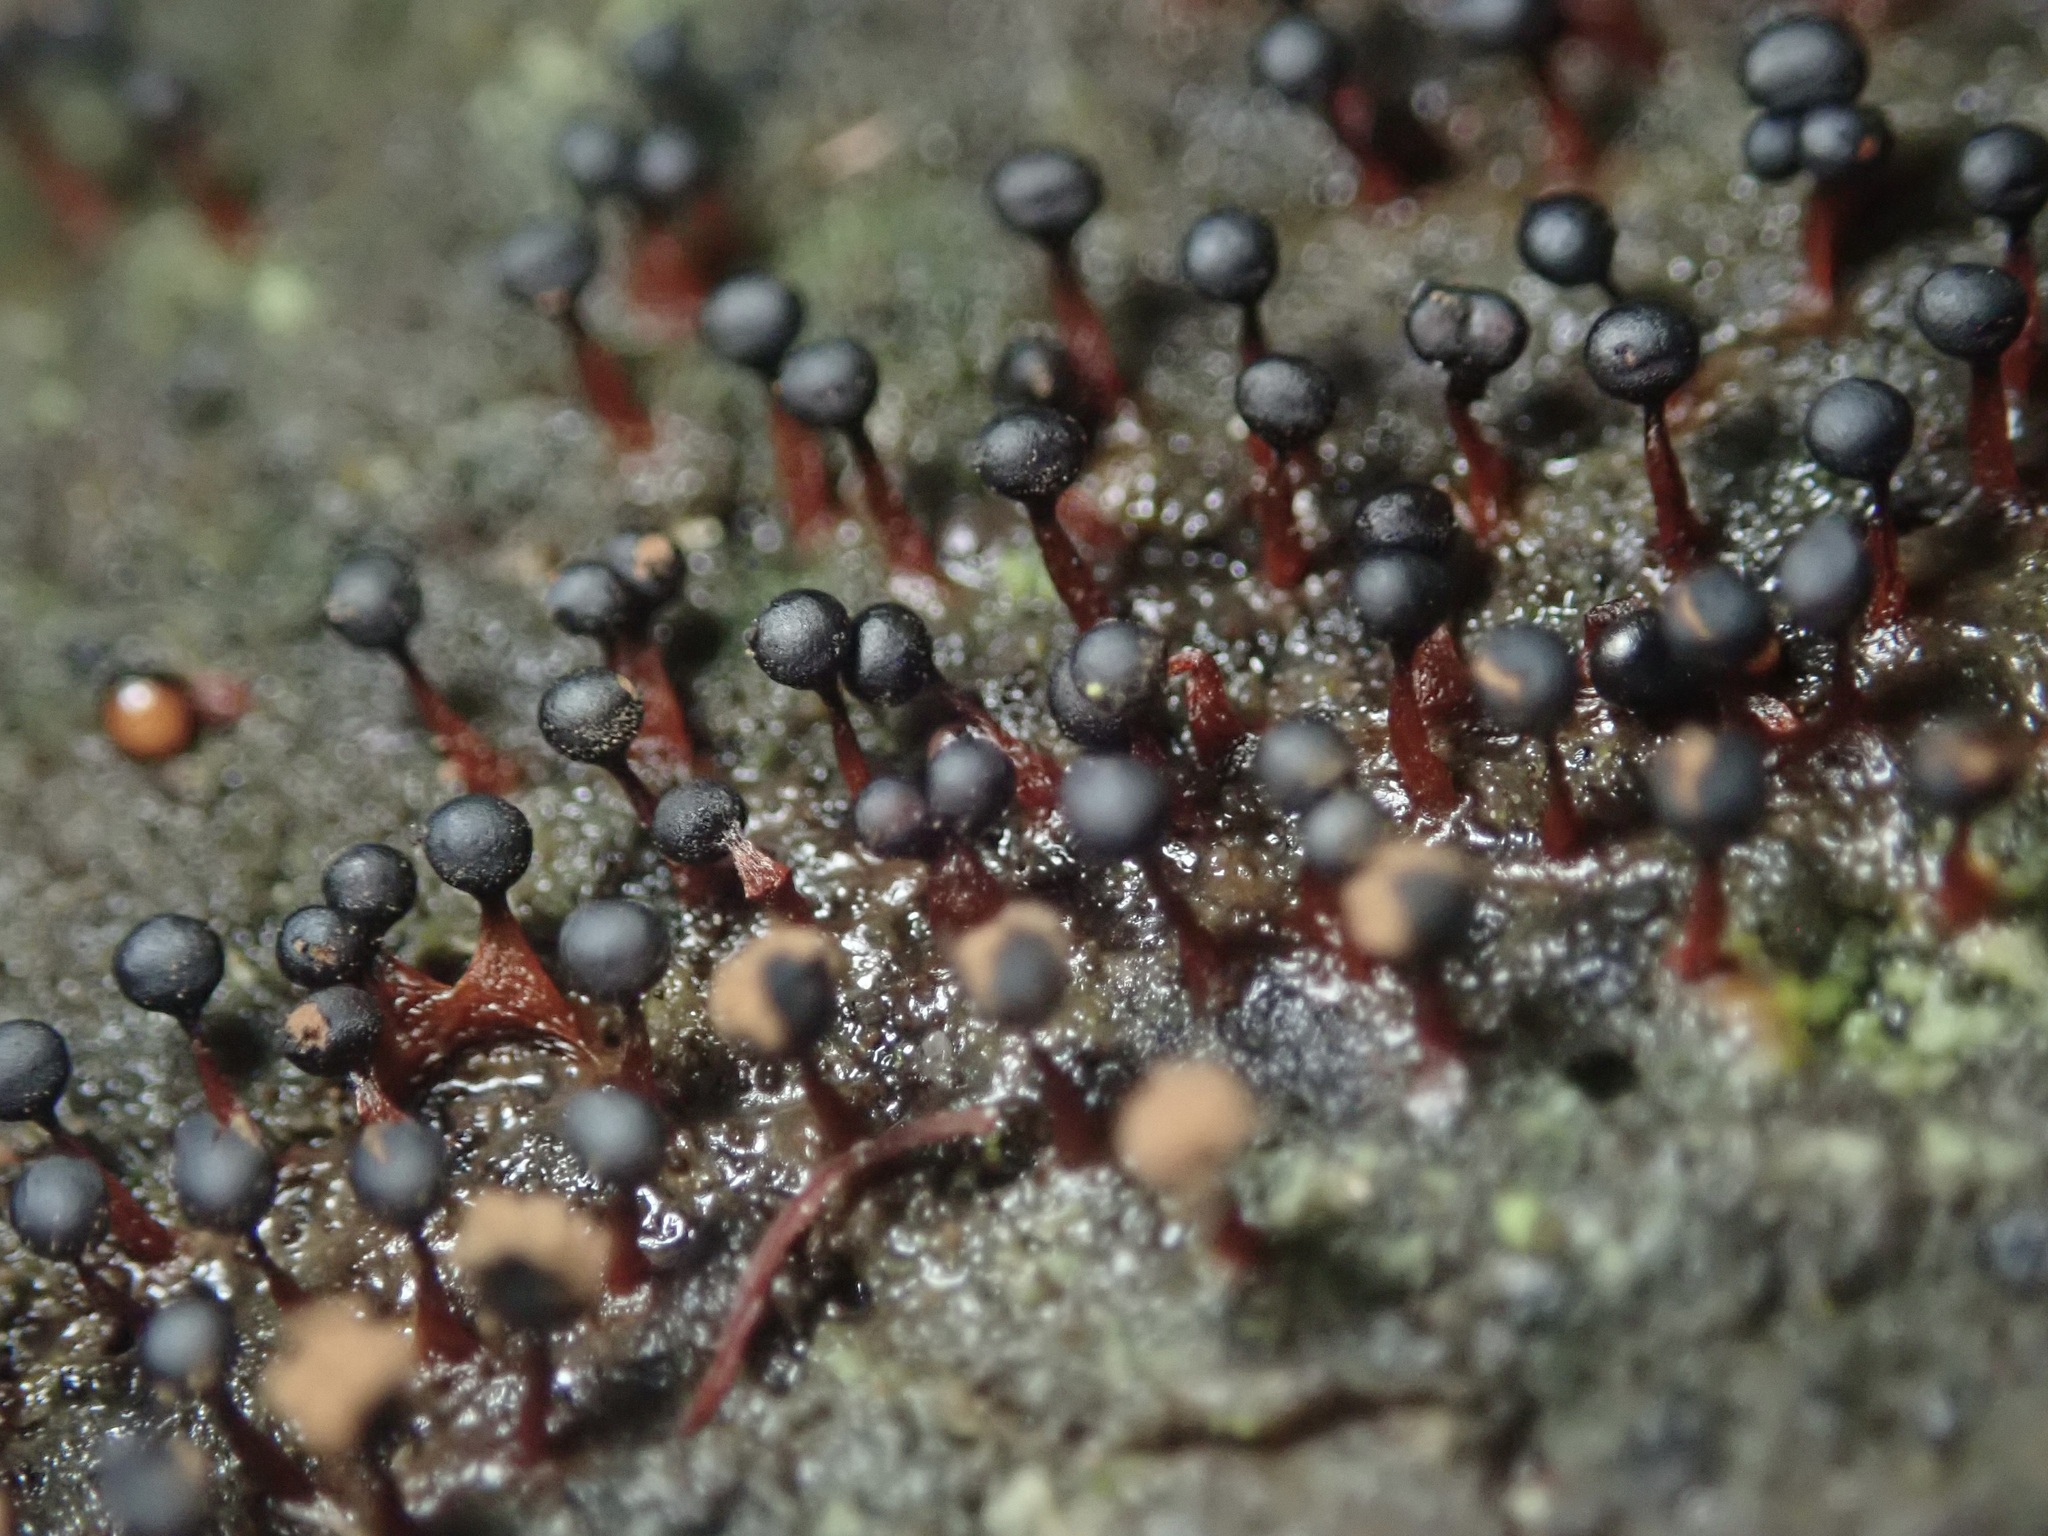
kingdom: Protozoa
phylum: Mycetozoa
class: Myxomycetes
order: Trichiales
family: Trichiaceae
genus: Metatrichia
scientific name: Metatrichia floriformis
